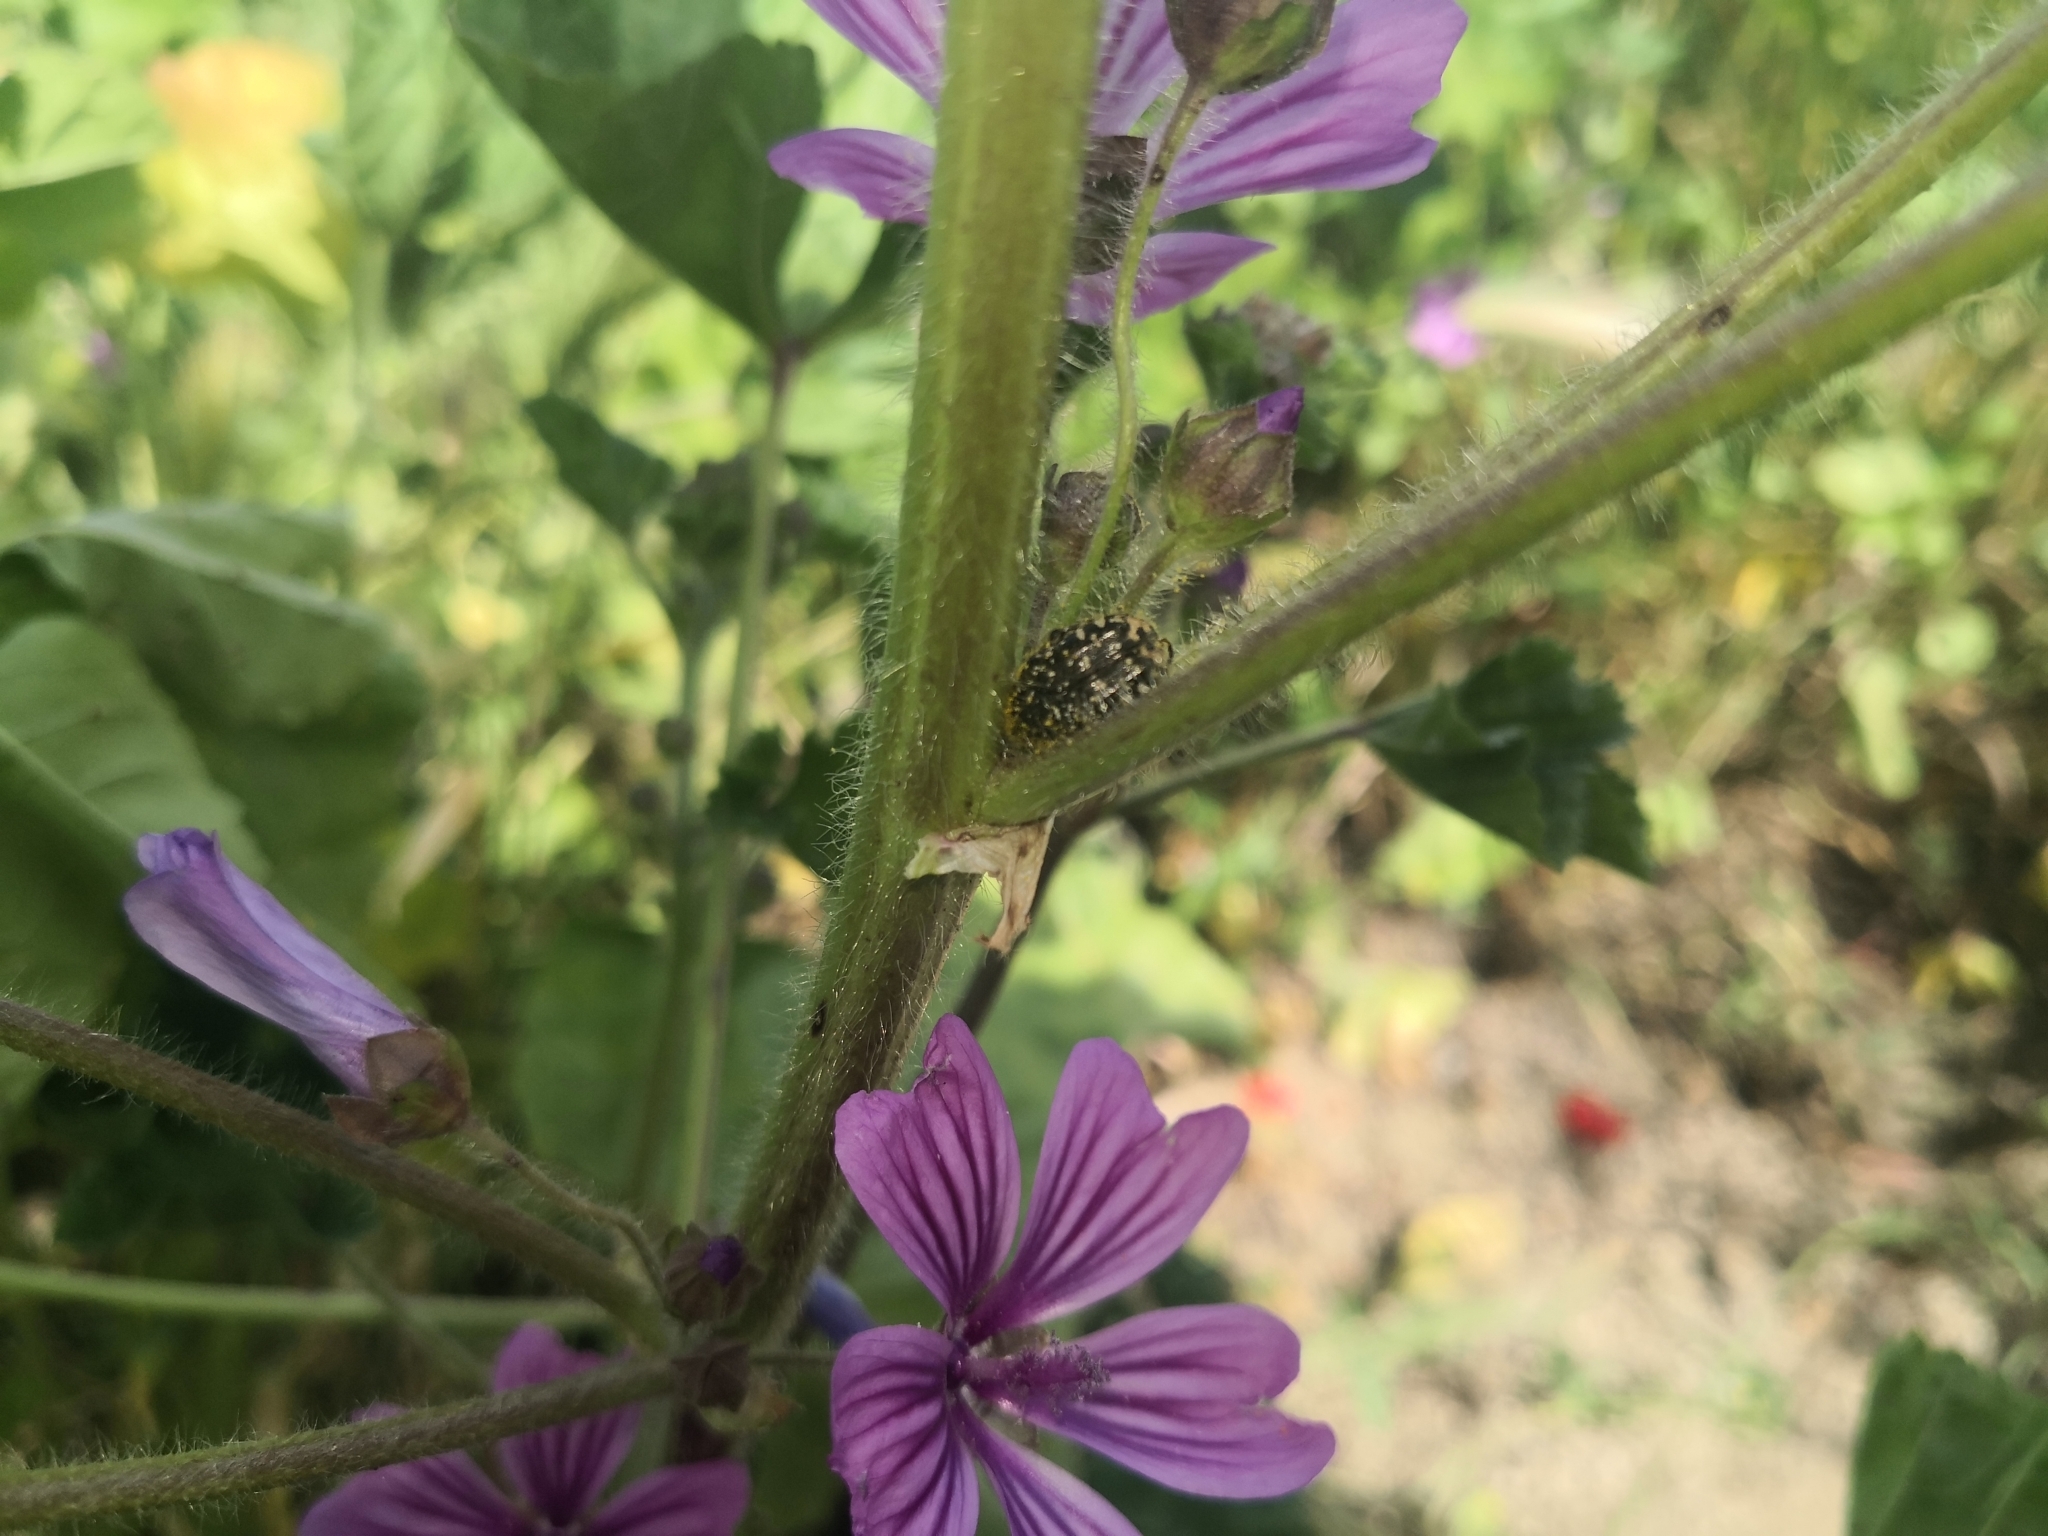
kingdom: Animalia
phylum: Arthropoda
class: Insecta
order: Coleoptera
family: Scarabaeidae
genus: Oxythyrea
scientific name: Oxythyrea funesta
